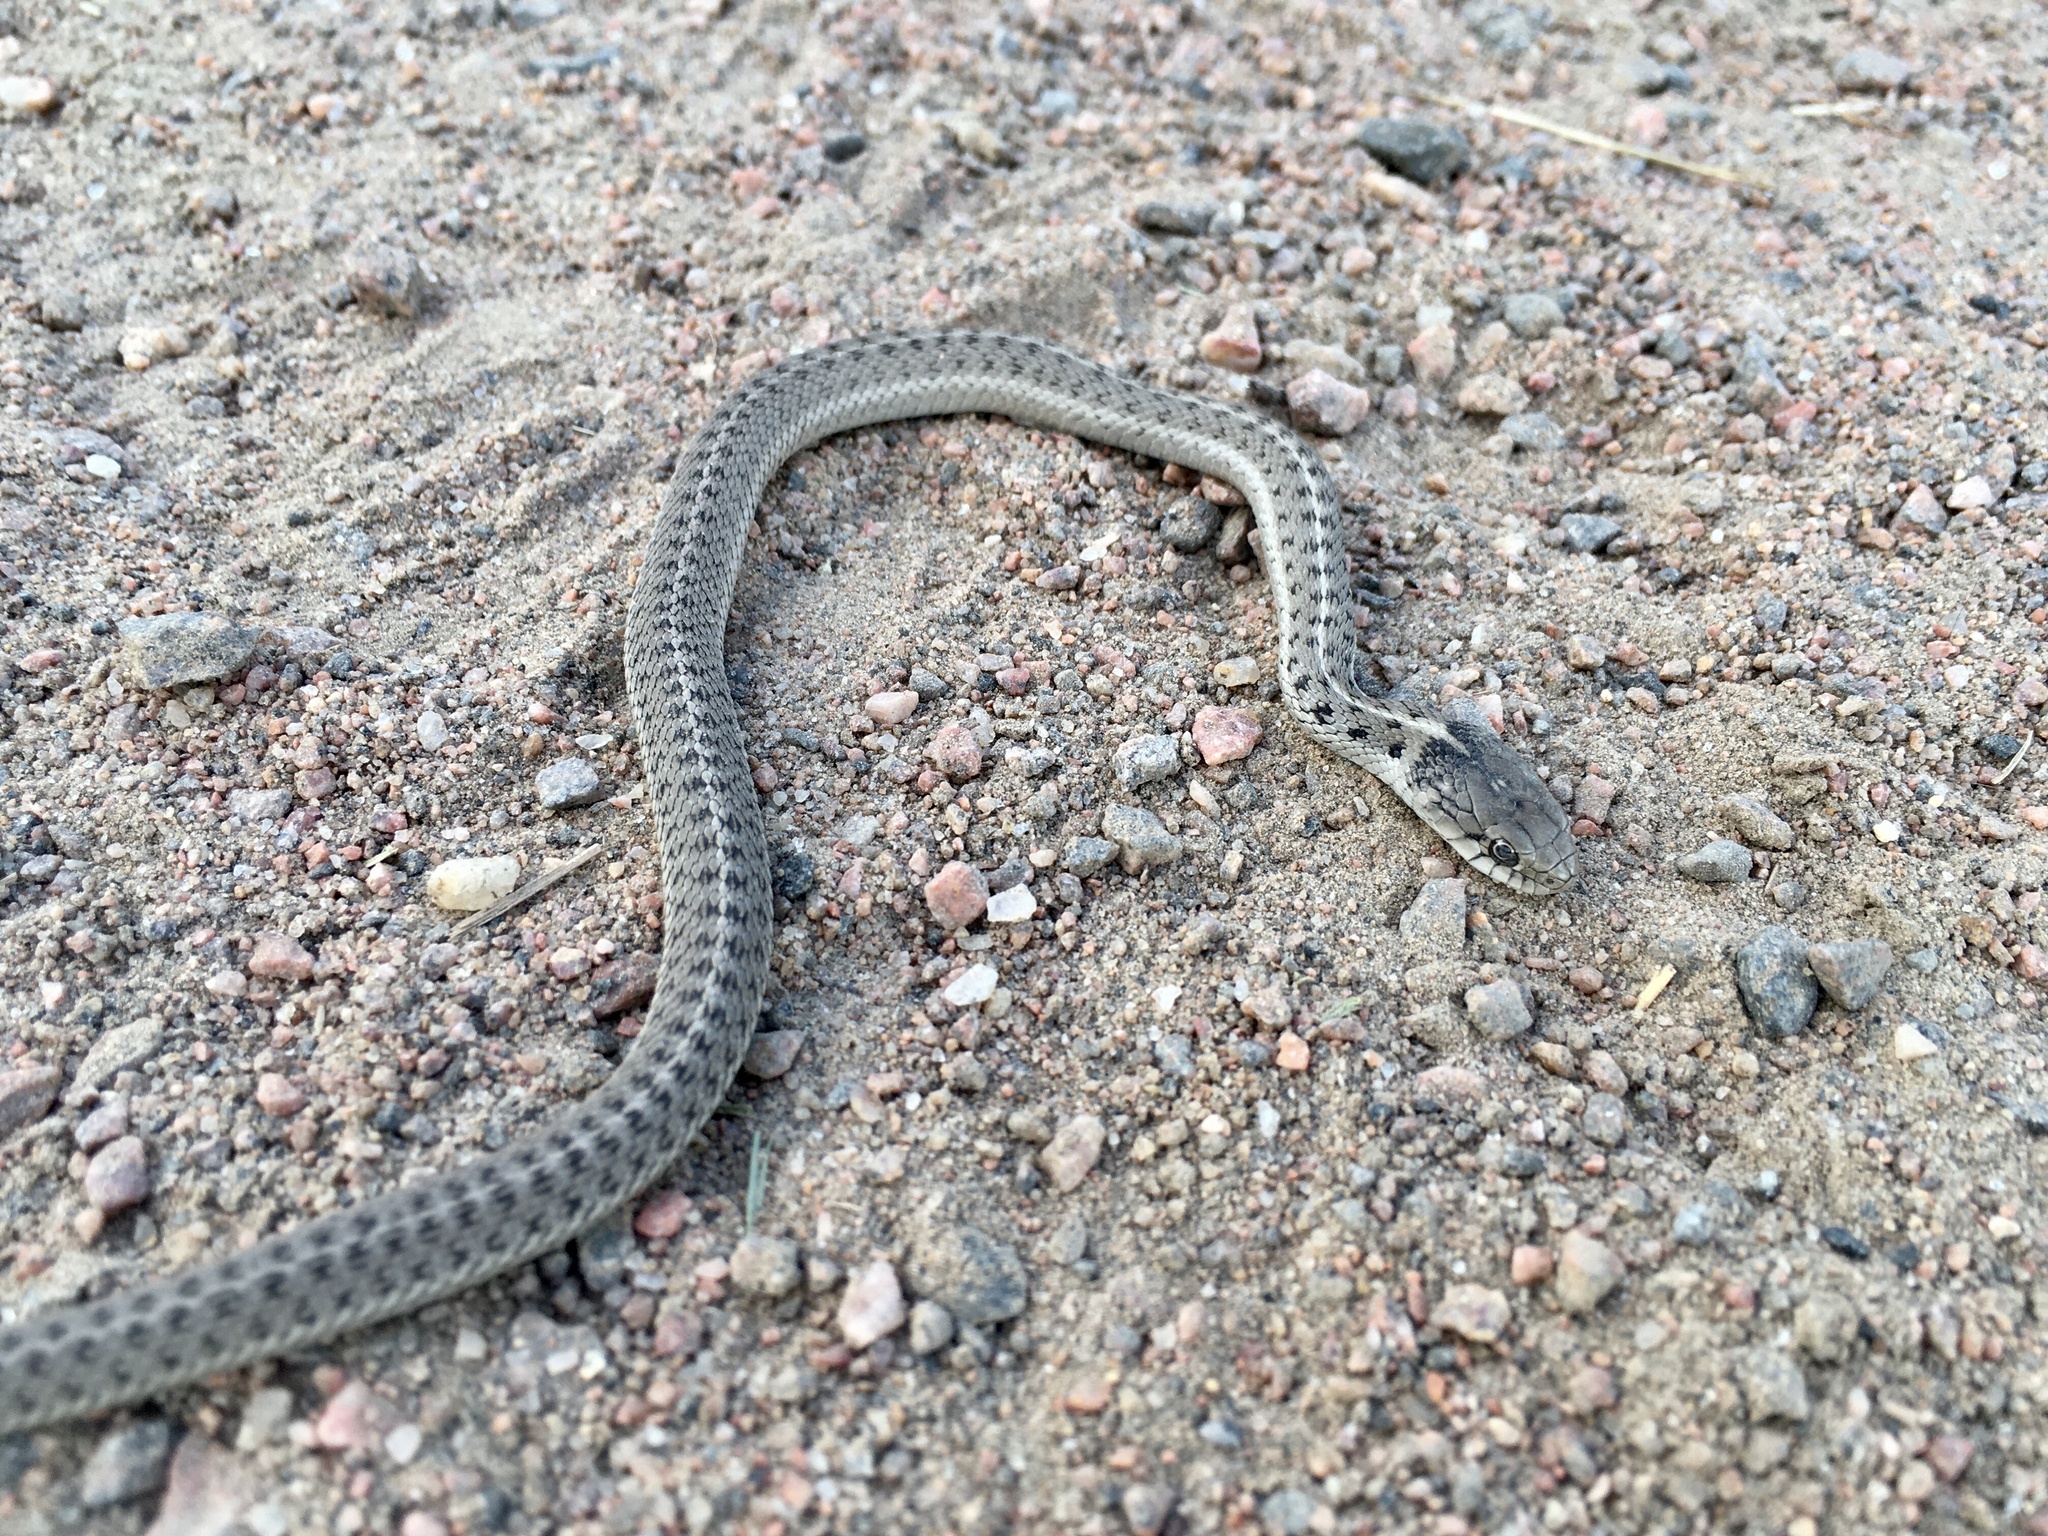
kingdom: Animalia
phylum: Chordata
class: Squamata
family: Colubridae
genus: Thamnophis
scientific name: Thamnophis elegans
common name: Western terrestrial garter snake
